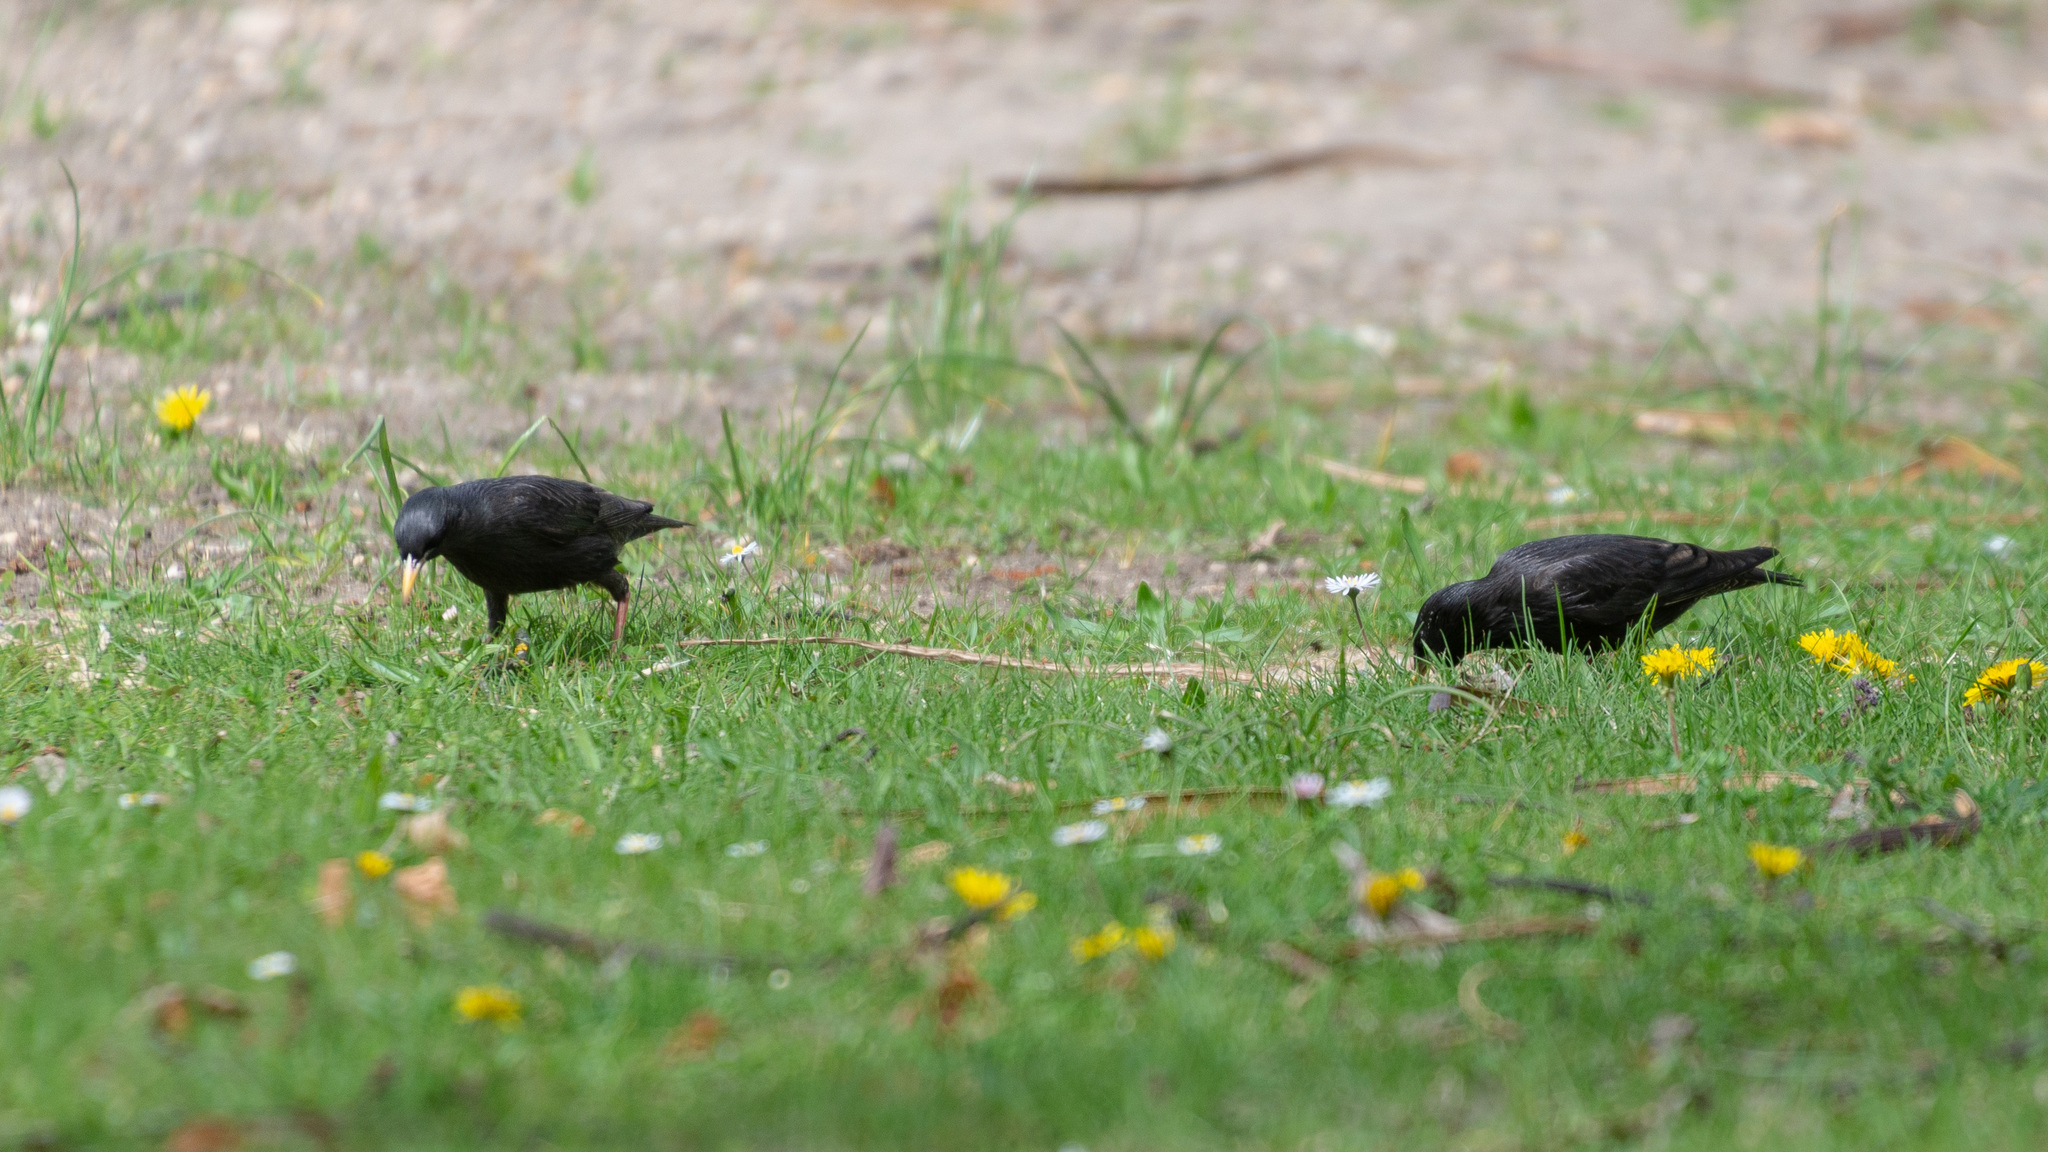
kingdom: Animalia
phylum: Chordata
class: Aves
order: Passeriformes
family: Sturnidae
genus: Sturnus
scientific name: Sturnus unicolor
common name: Spotless starling
